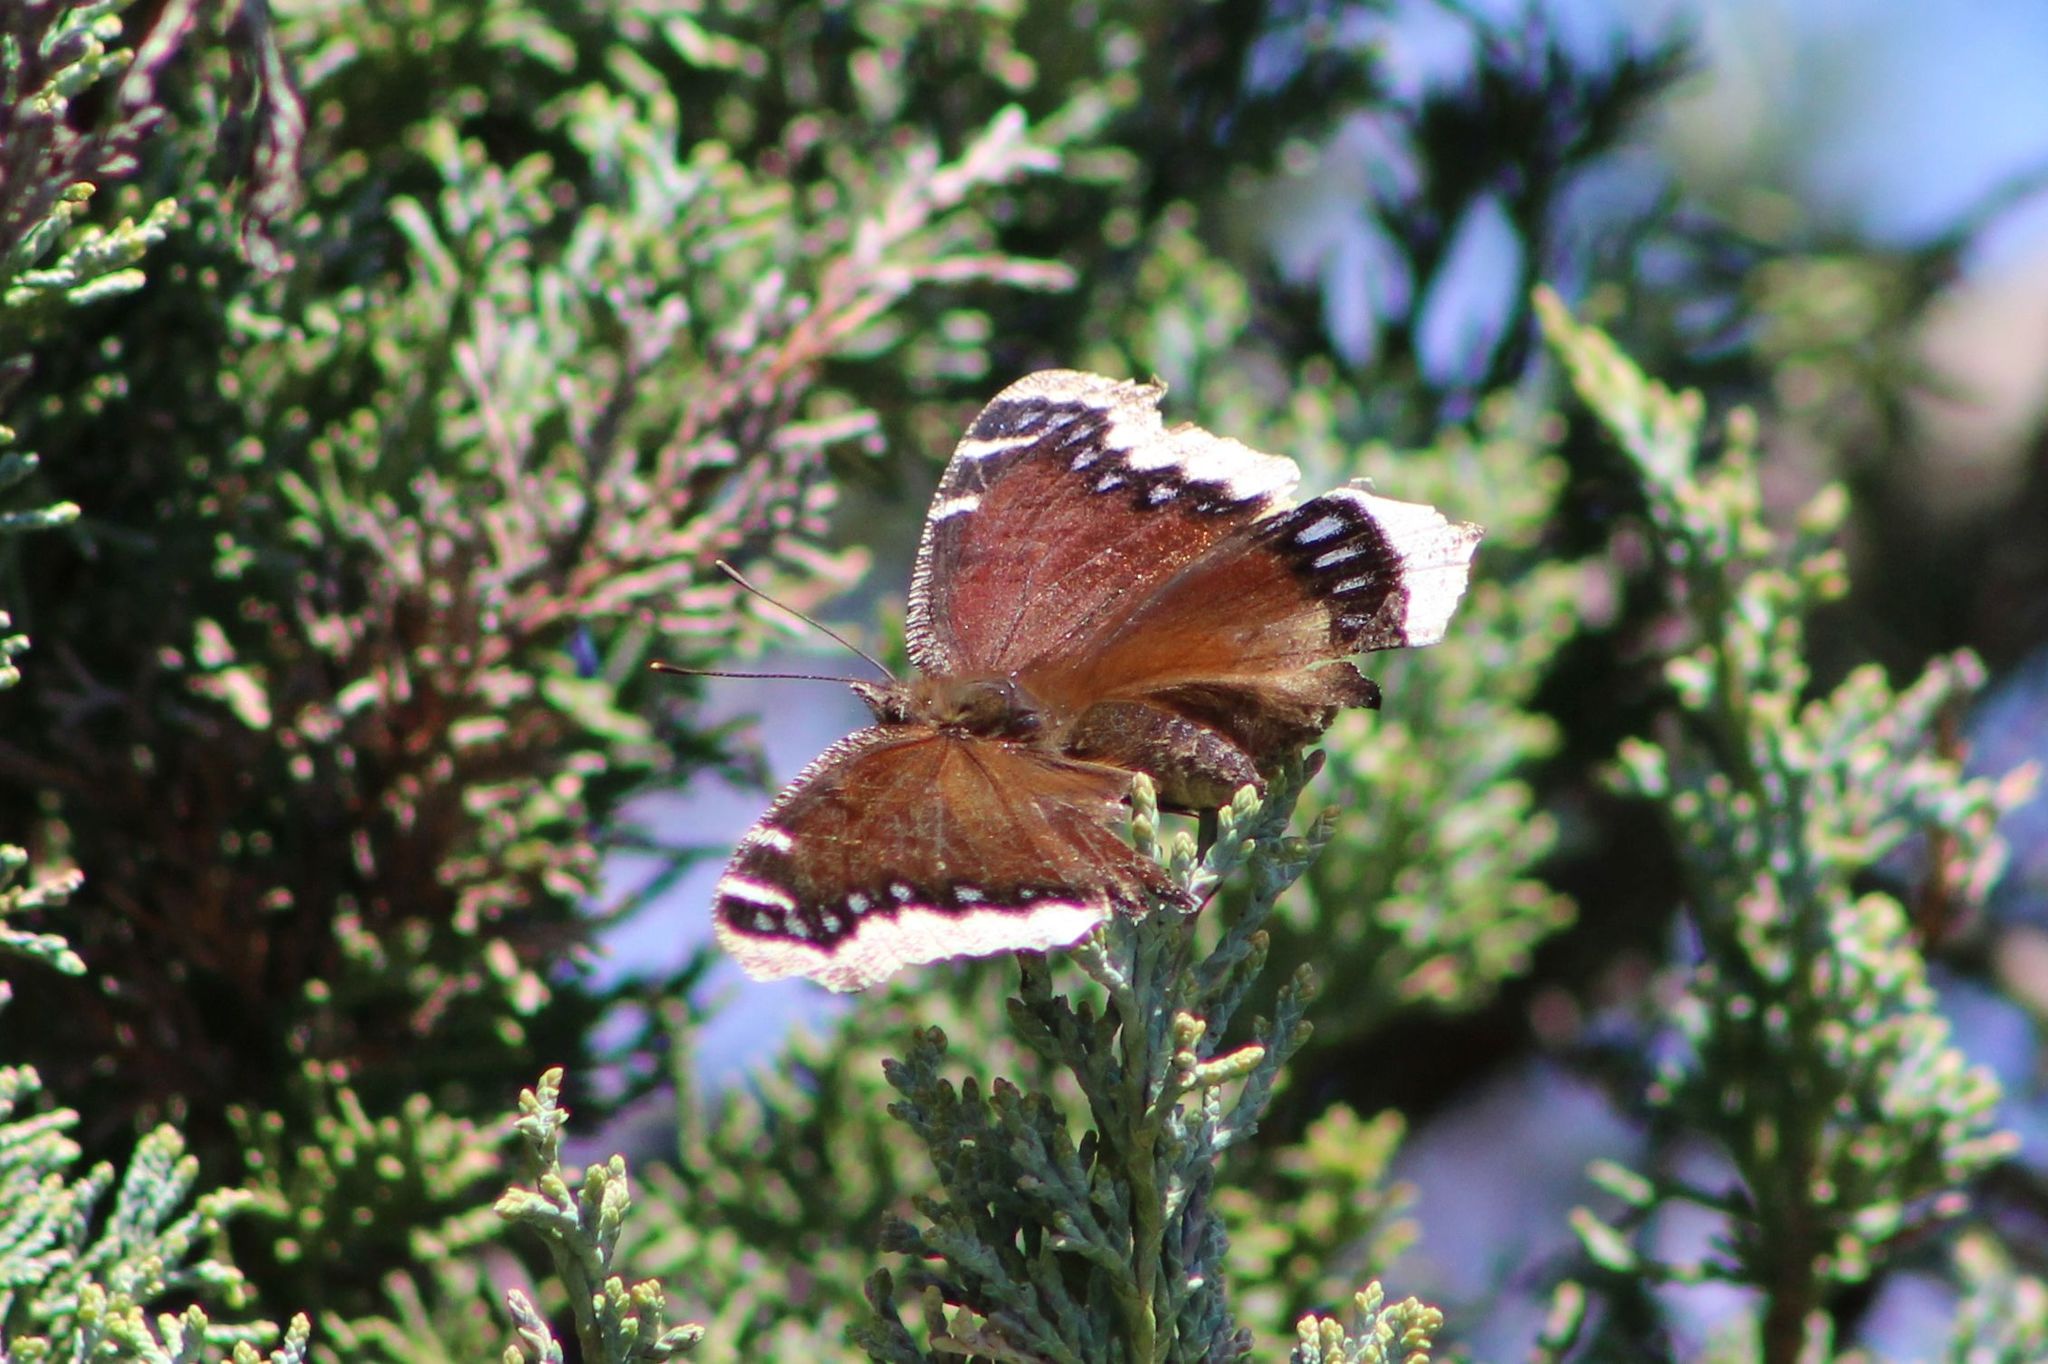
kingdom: Animalia
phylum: Arthropoda
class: Insecta
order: Lepidoptera
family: Nymphalidae
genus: Nymphalis
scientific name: Nymphalis antiopa
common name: Camberwell beauty
